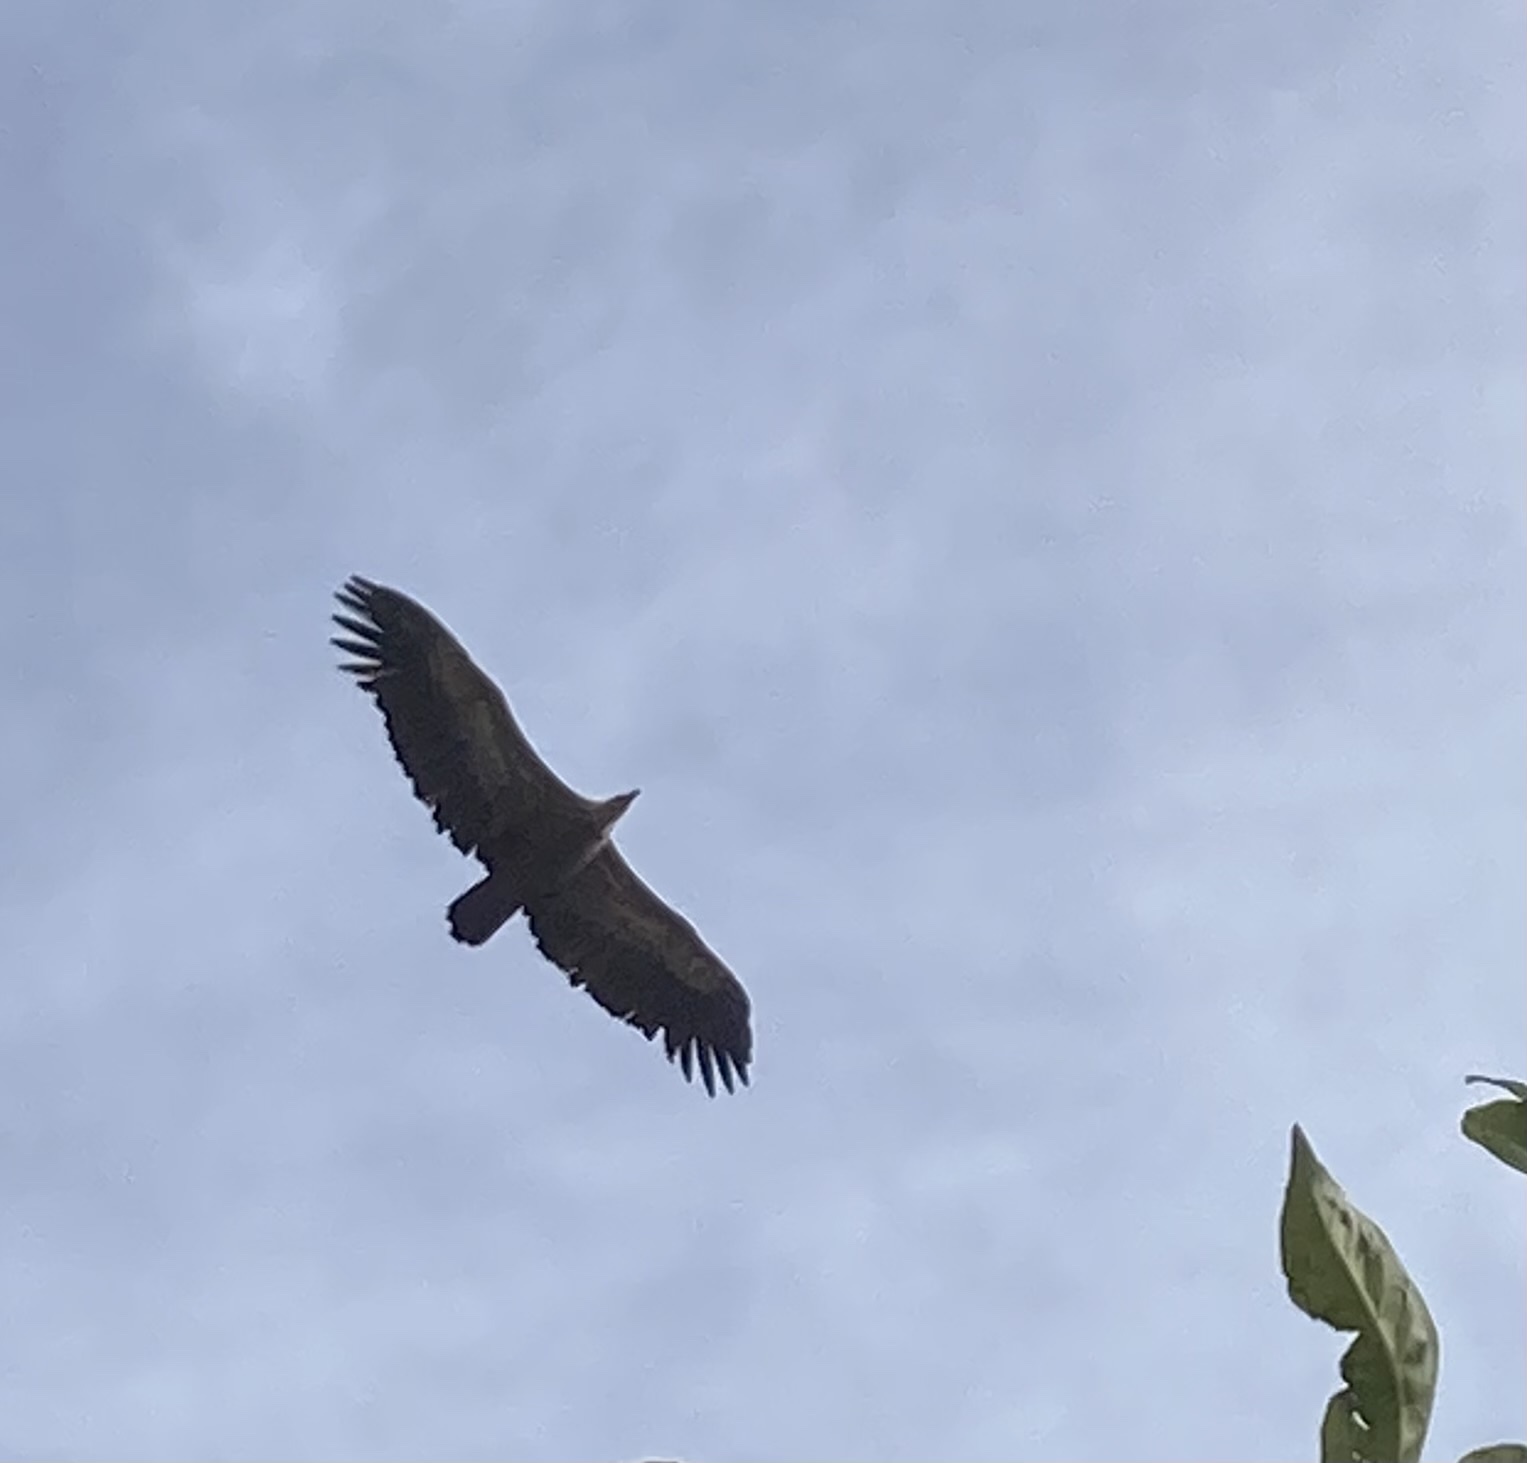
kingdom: Animalia
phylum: Chordata
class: Aves
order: Accipitriformes
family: Accipitridae
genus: Gyps
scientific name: Gyps fulvus
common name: Griffon vulture
